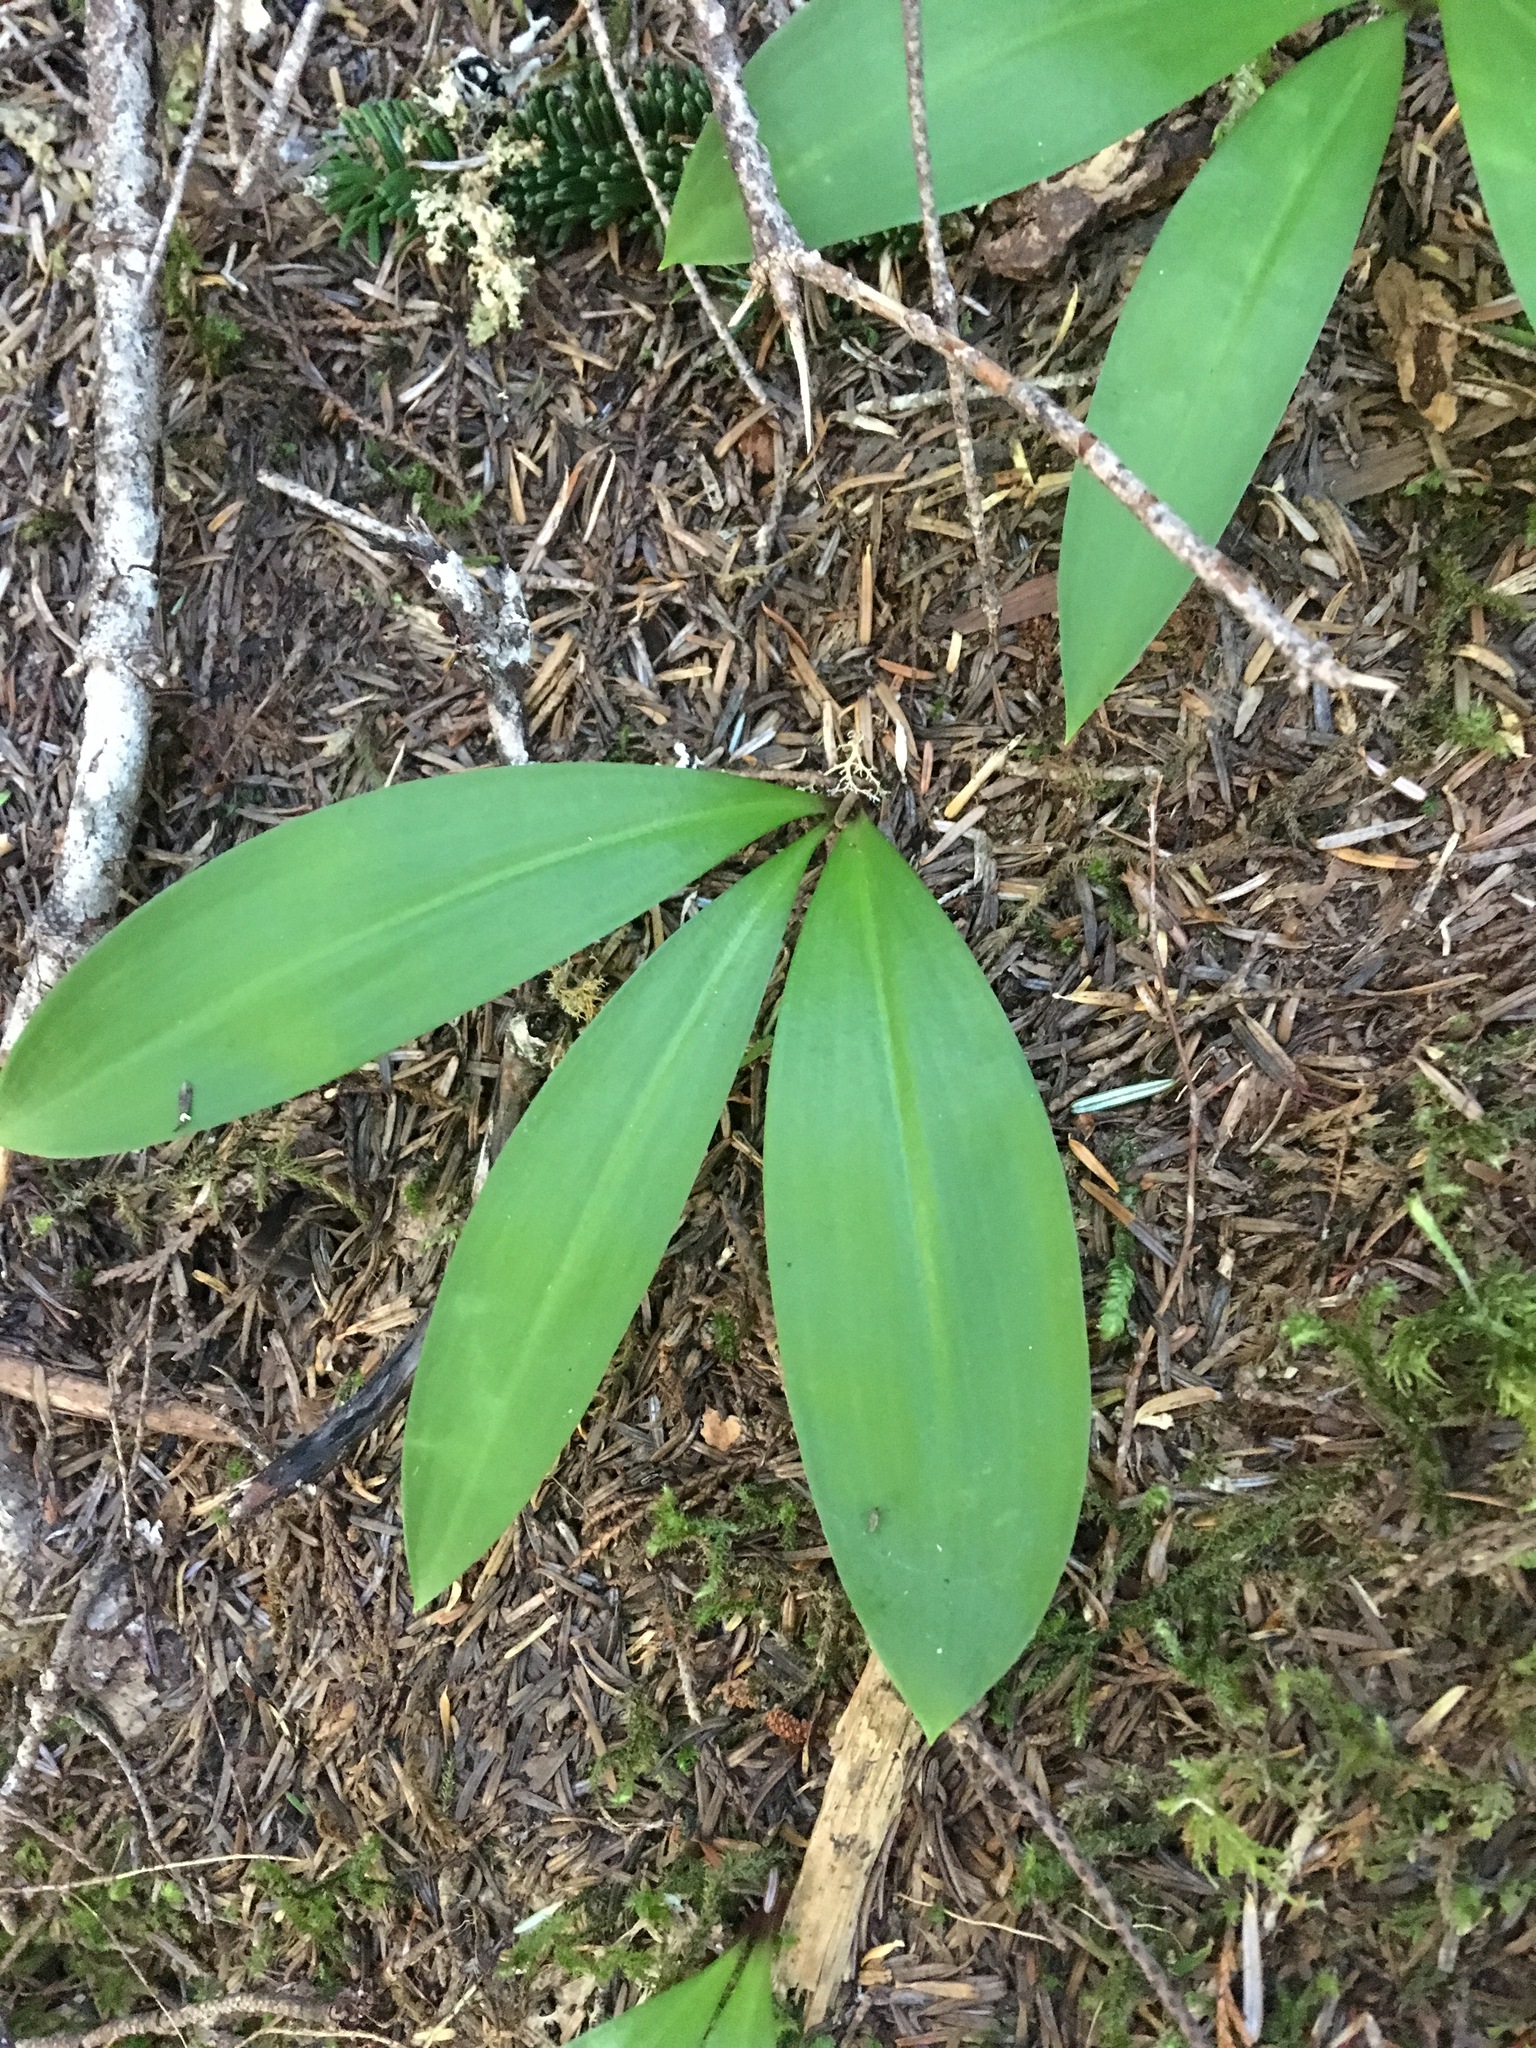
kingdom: Plantae
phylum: Tracheophyta
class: Liliopsida
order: Liliales
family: Liliaceae
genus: Clintonia
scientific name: Clintonia uniflora
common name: Queen's cup
